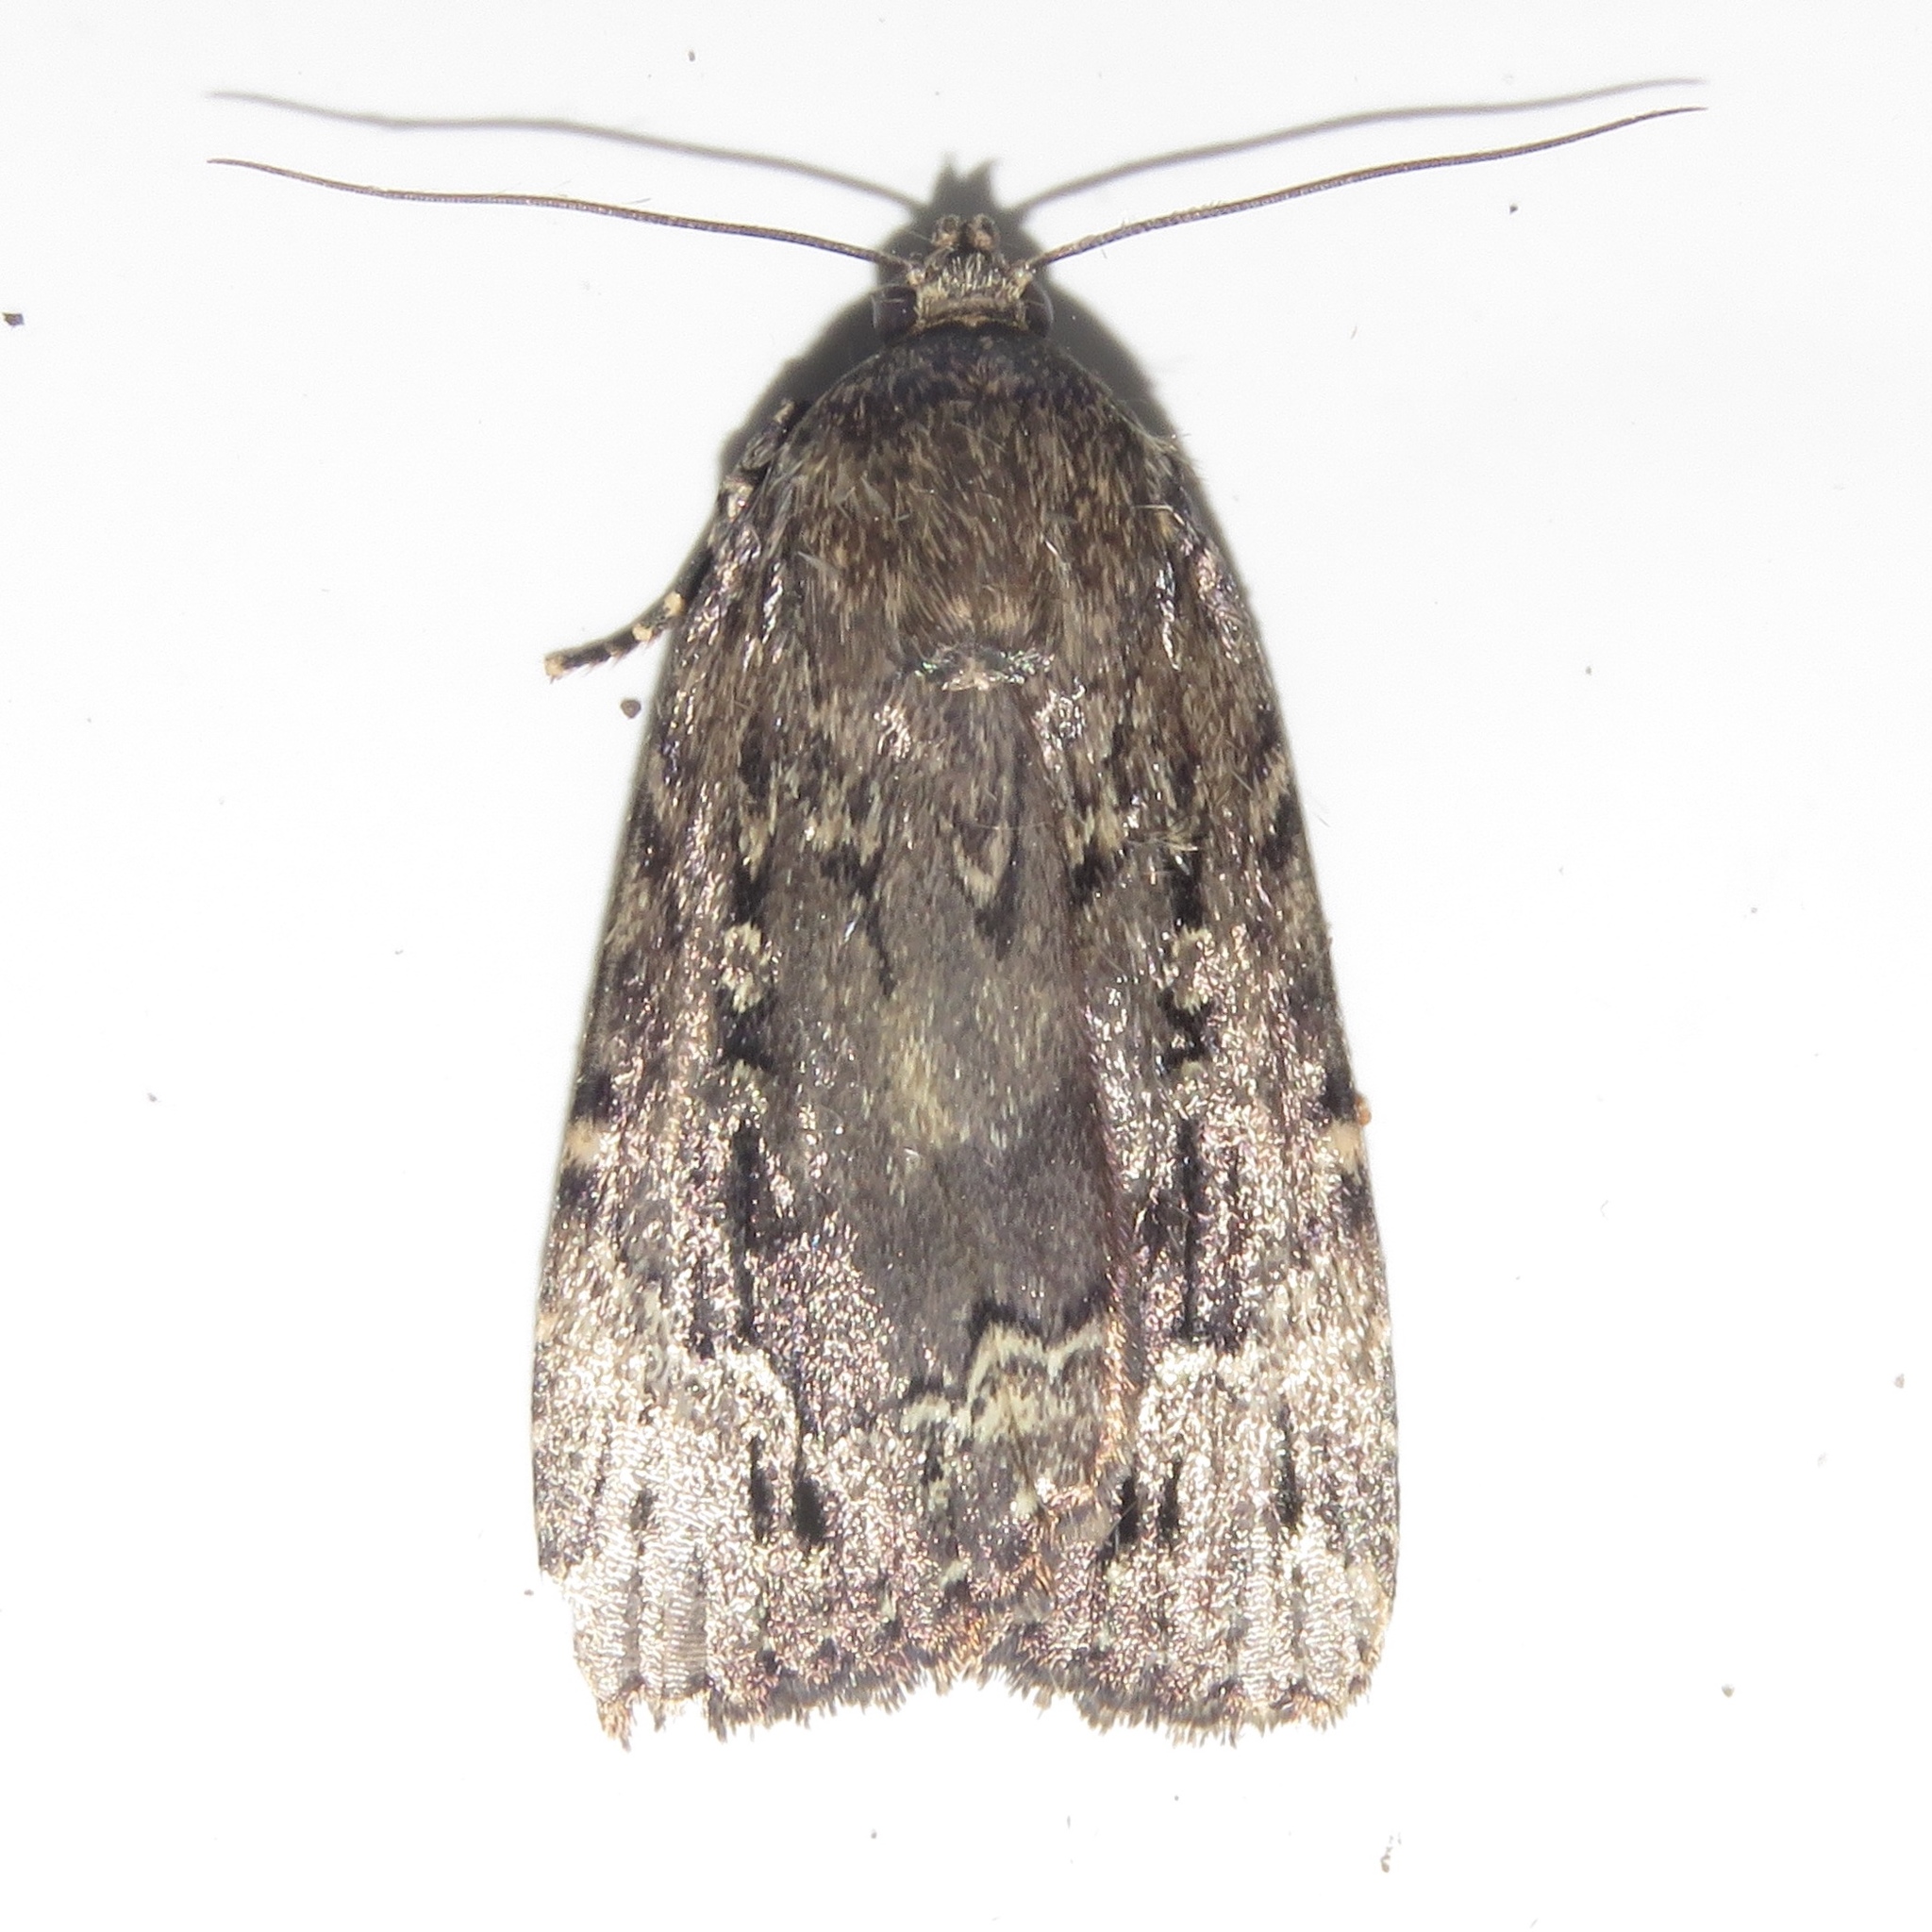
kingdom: Animalia
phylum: Arthropoda
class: Insecta
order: Lepidoptera
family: Noctuidae
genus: Amphipyra
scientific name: Amphipyra pyramidoides
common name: American copper underwing
